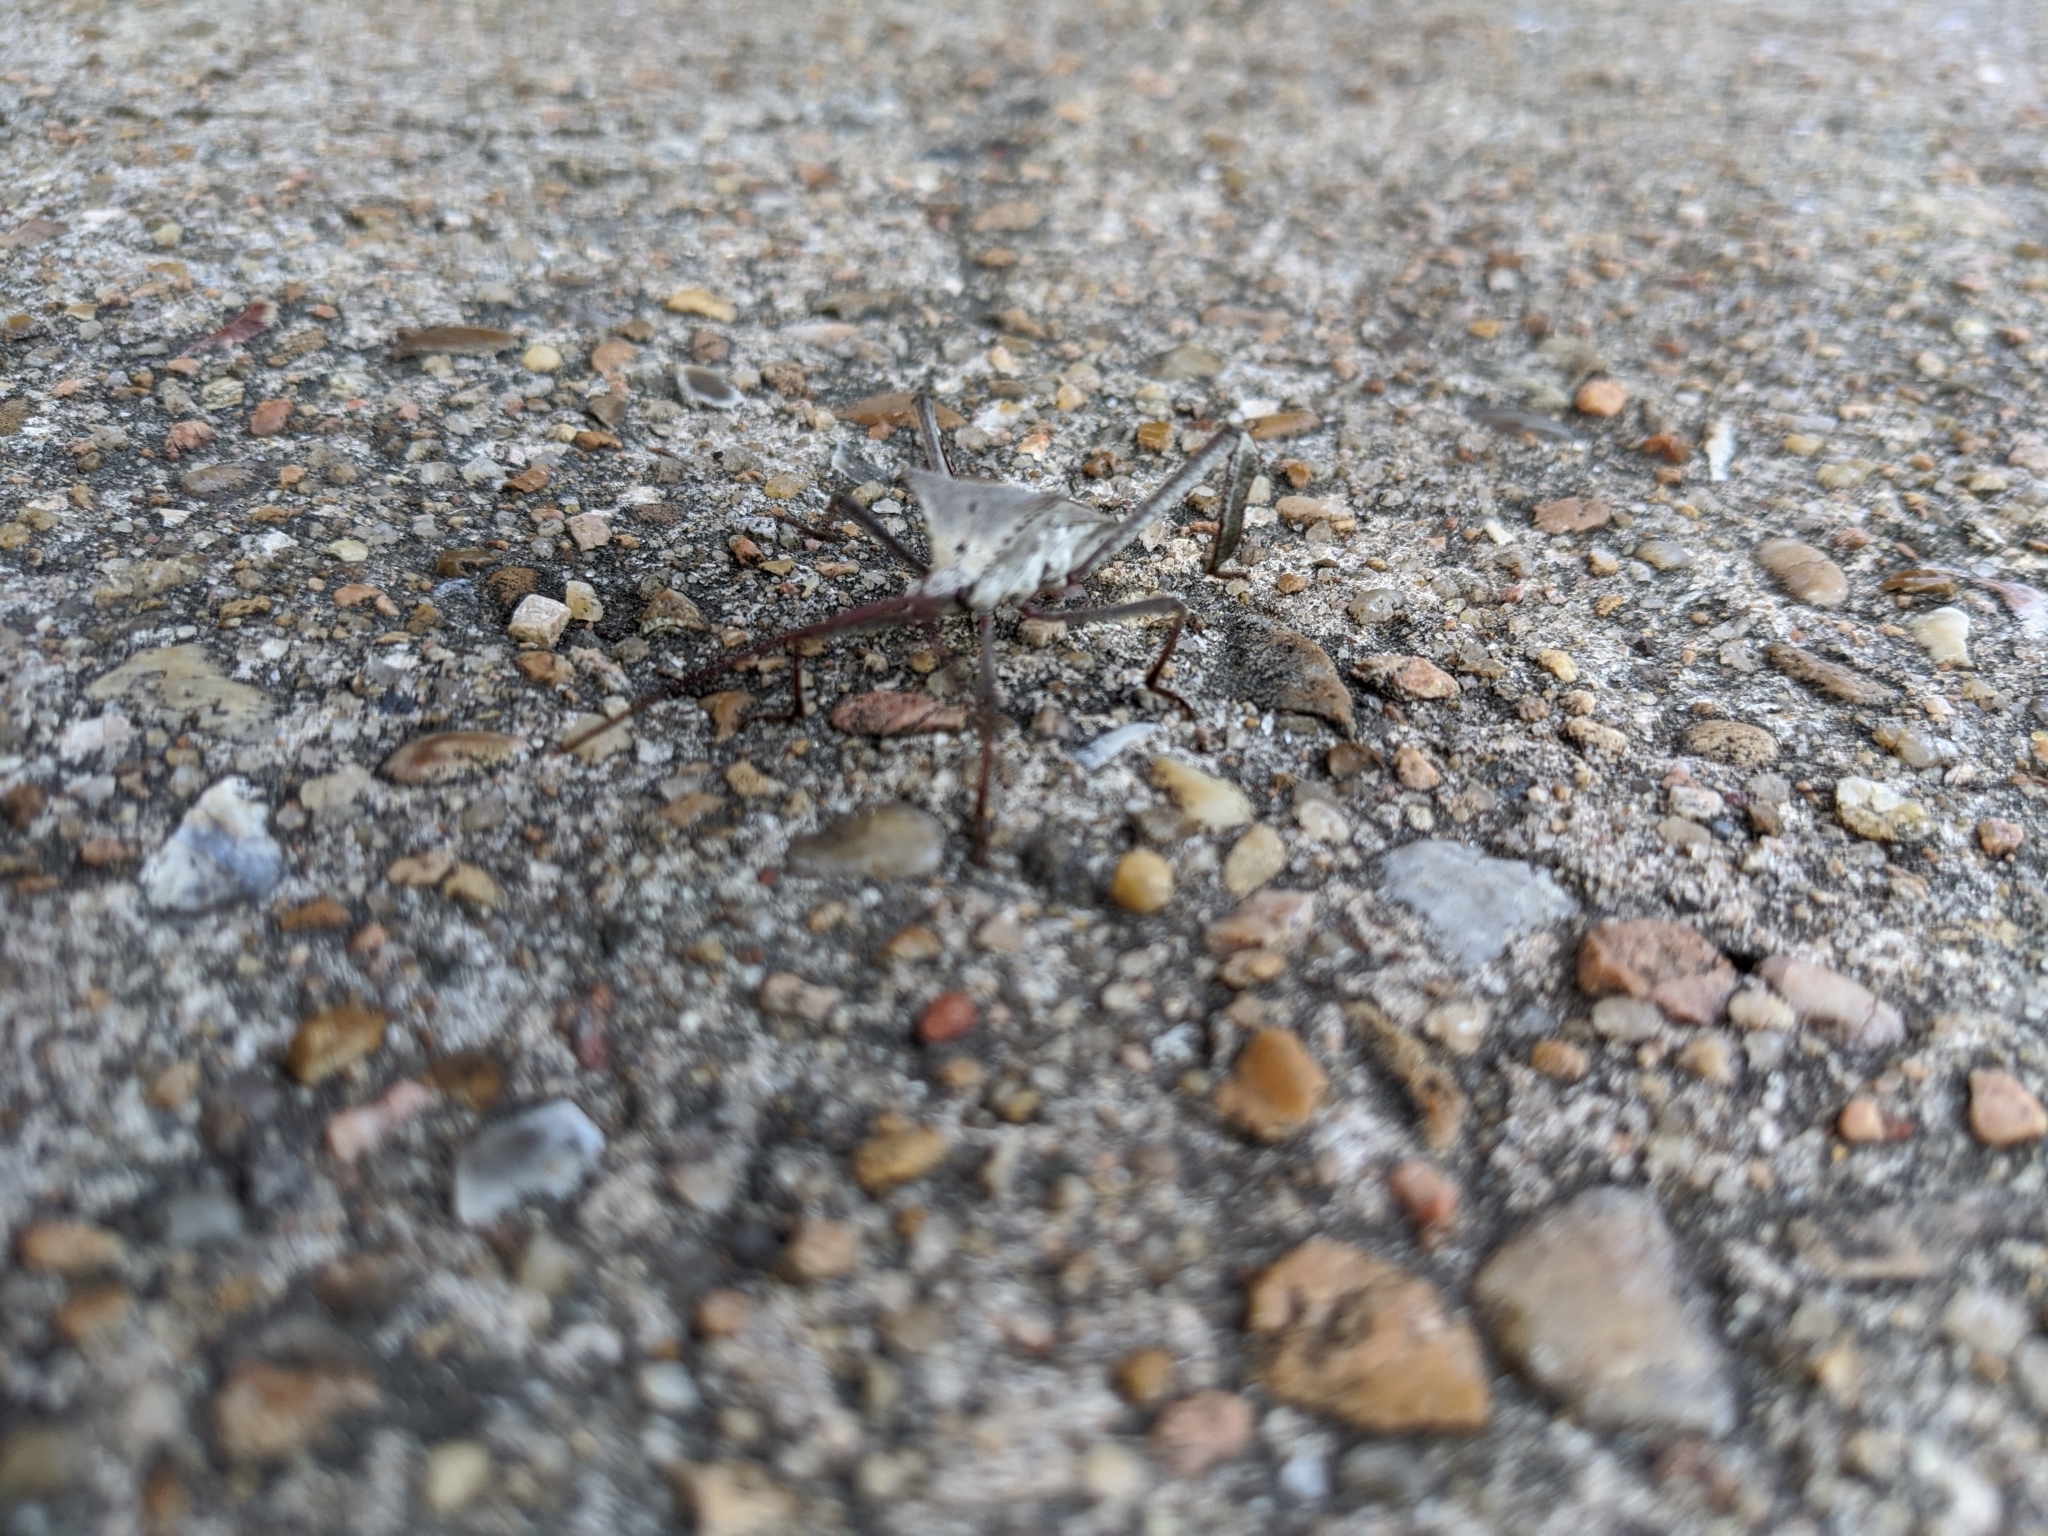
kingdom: Animalia
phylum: Arthropoda
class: Insecta
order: Hemiptera
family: Coreidae
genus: Acanthocephala
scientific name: Acanthocephala declivis
